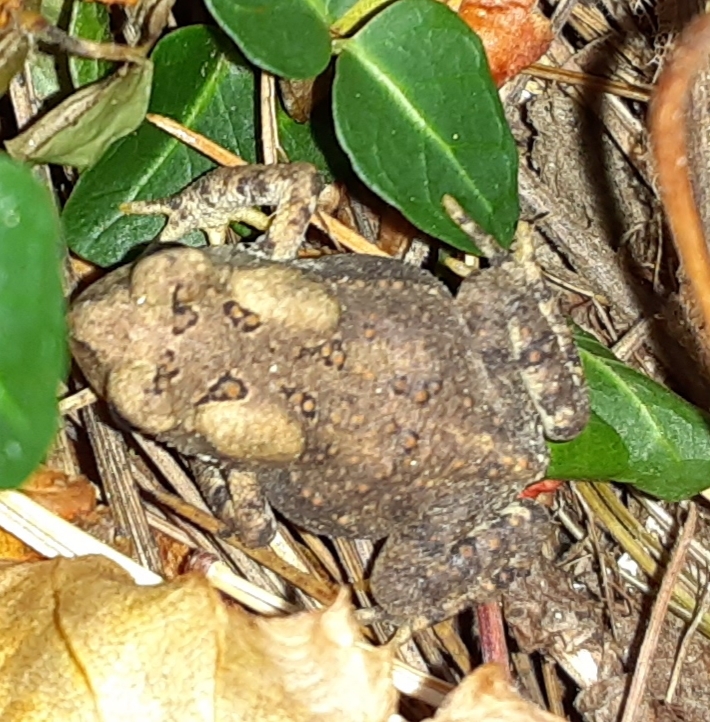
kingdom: Animalia
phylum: Chordata
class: Amphibia
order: Anura
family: Bufonidae
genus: Anaxyrus
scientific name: Anaxyrus americanus
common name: American toad
